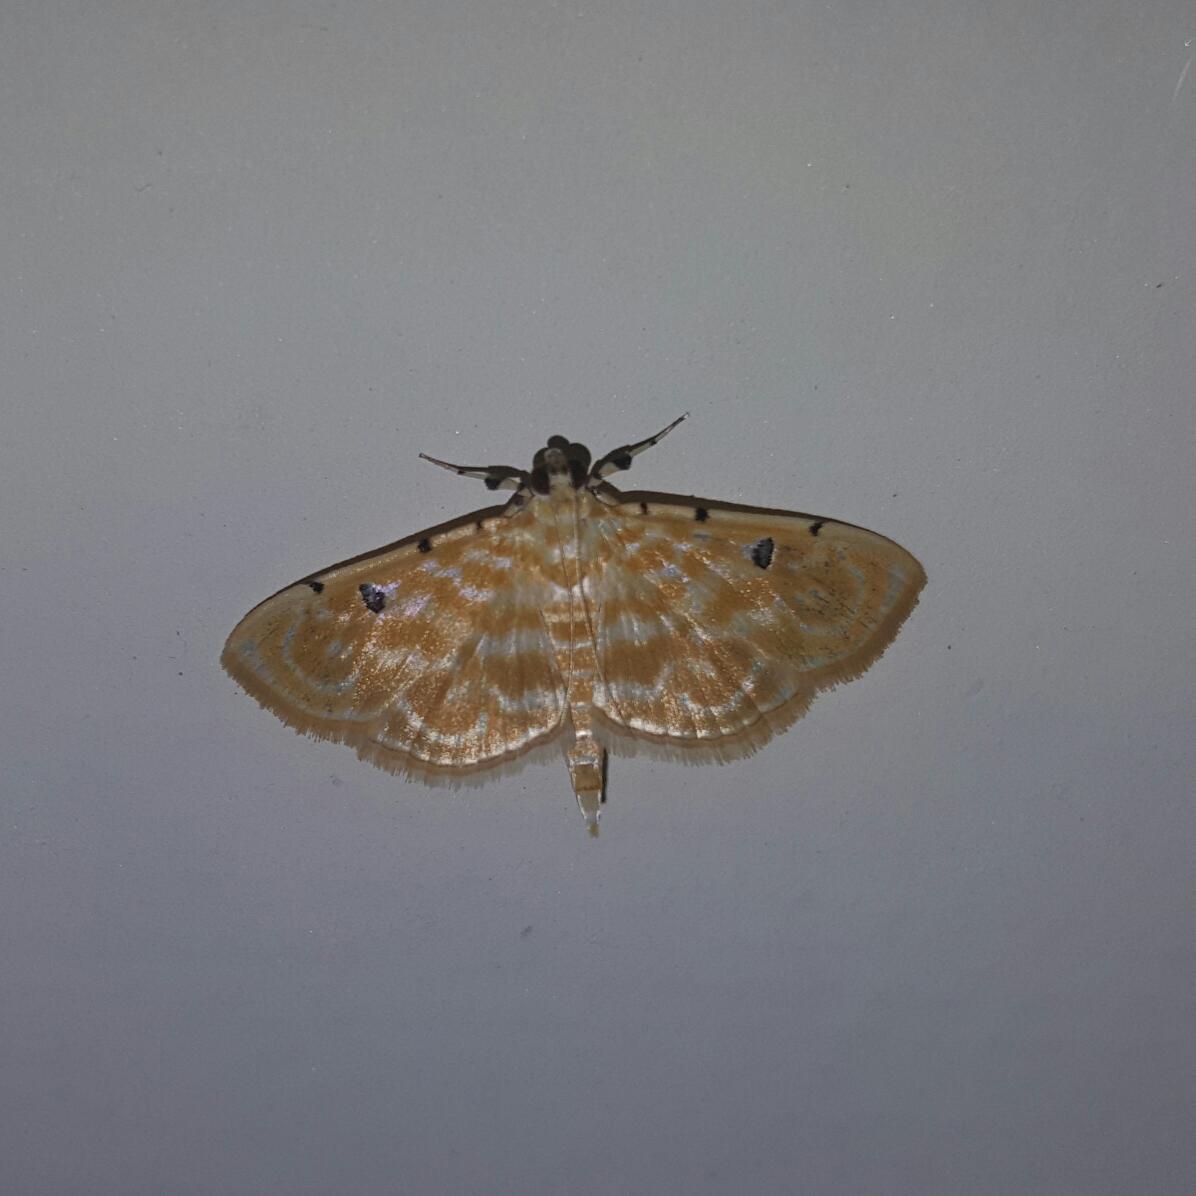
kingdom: Animalia
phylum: Arthropoda
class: Insecta
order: Lepidoptera
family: Crambidae
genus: Notarcha
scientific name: Notarcha aurolinealis
